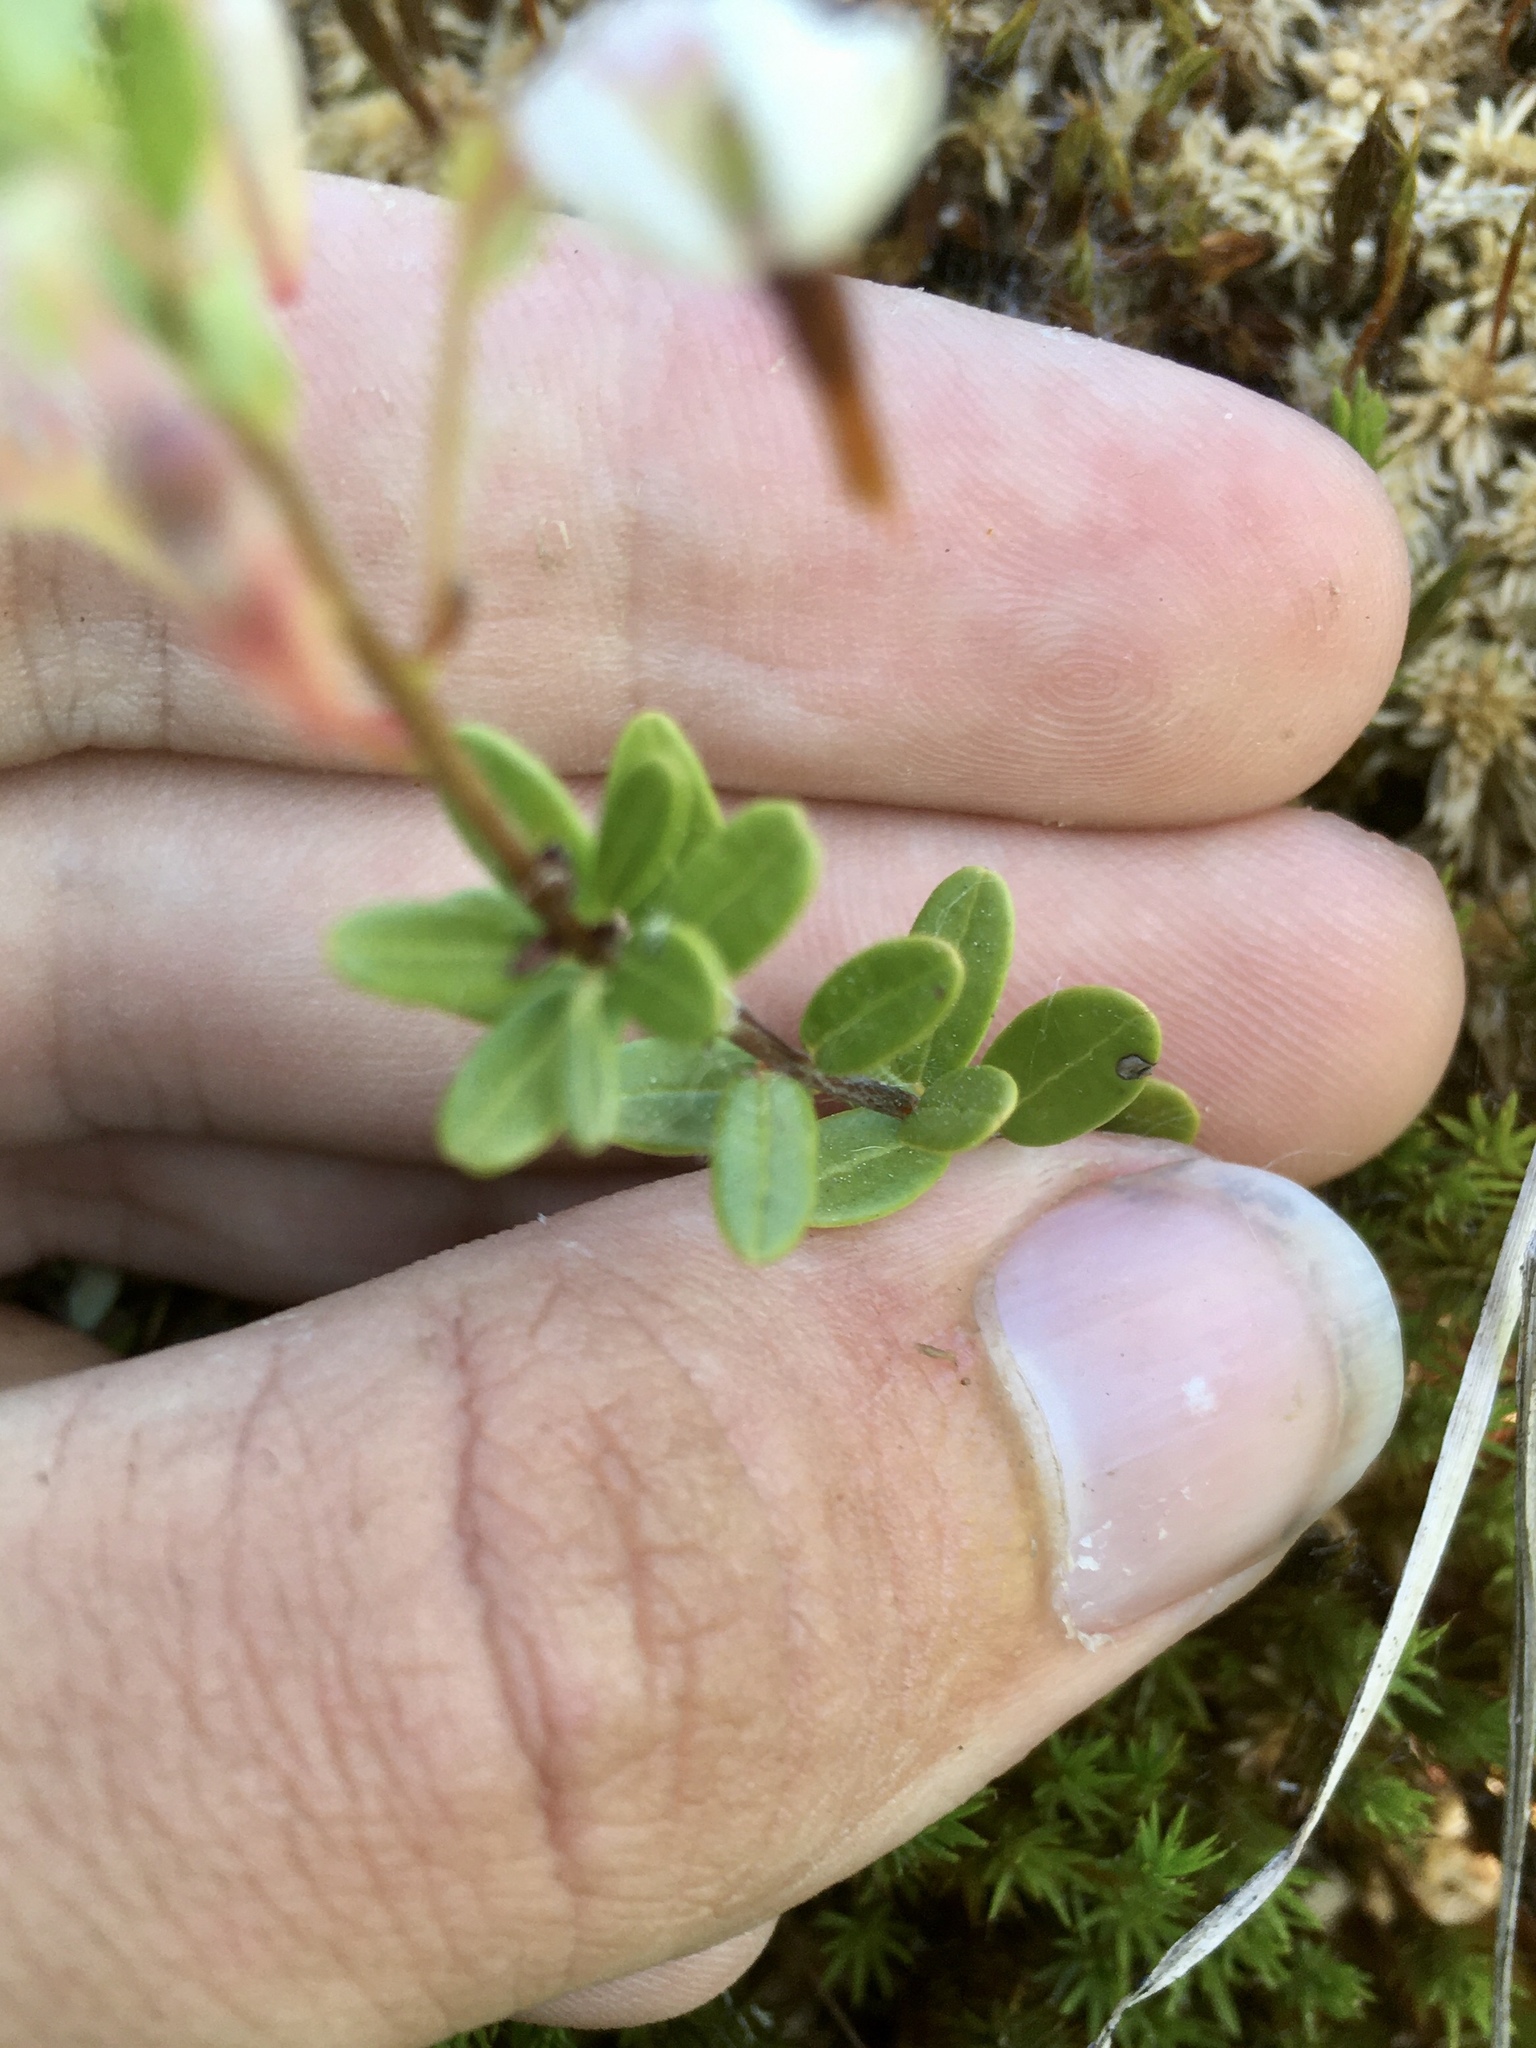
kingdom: Plantae
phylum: Tracheophyta
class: Magnoliopsida
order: Ericales
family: Ericaceae
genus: Vaccinium
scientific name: Vaccinium macrocarpon
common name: American cranberry
